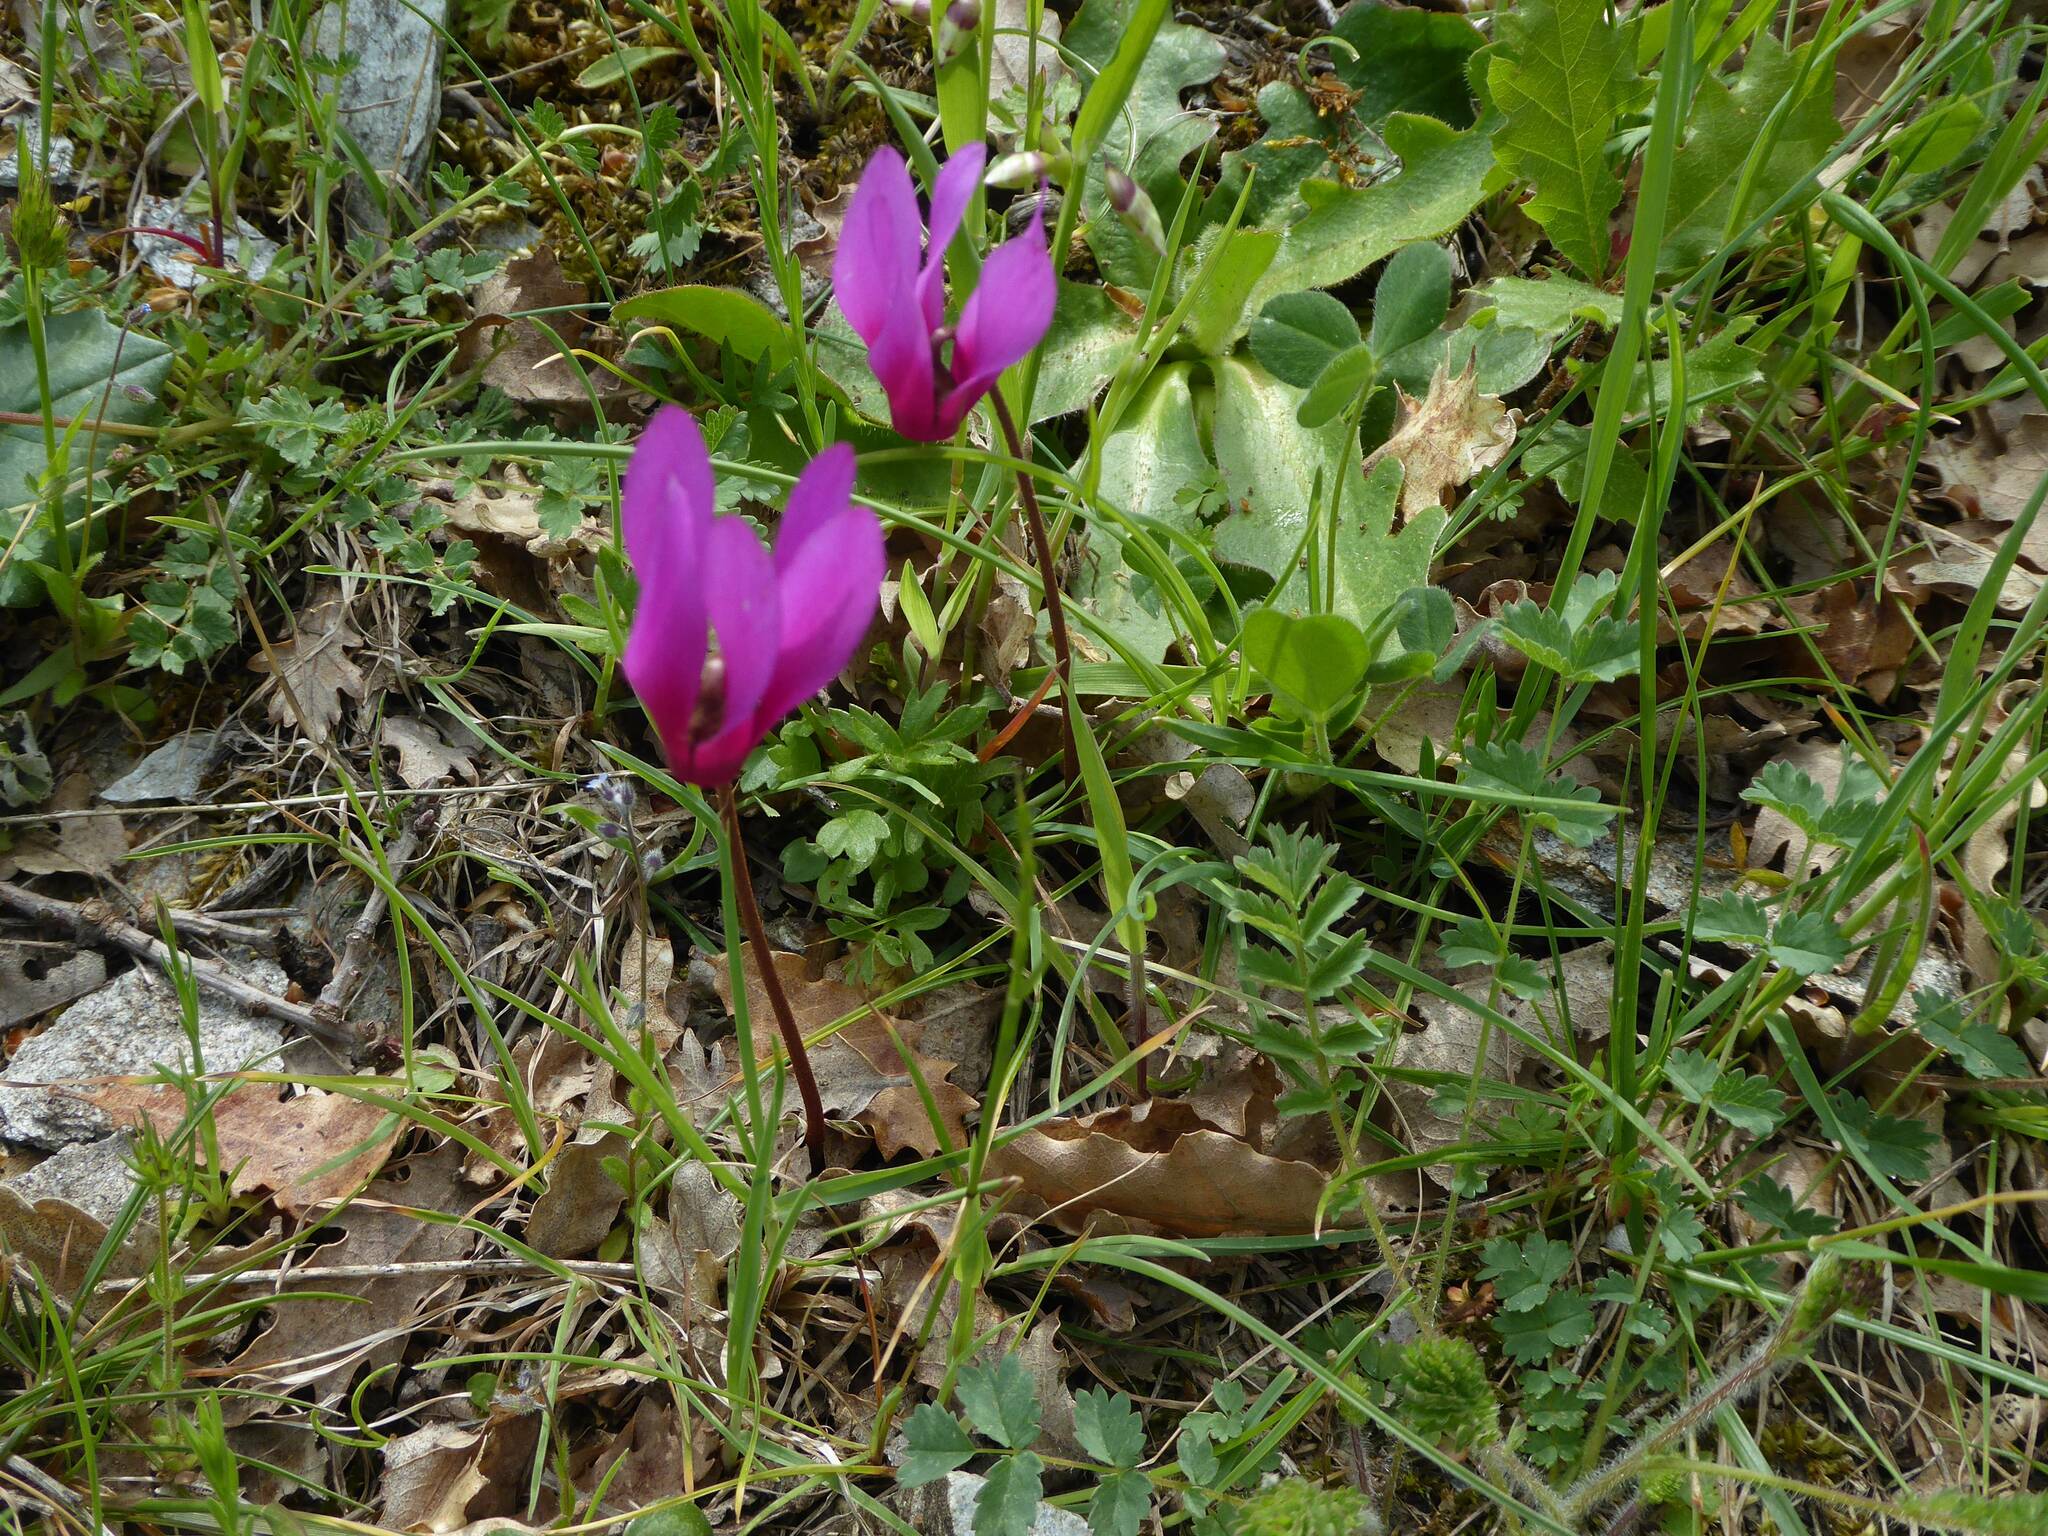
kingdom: Plantae
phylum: Tracheophyta
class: Magnoliopsida
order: Ericales
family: Primulaceae
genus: Cyclamen
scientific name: Cyclamen repandum
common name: Spring sowbread
